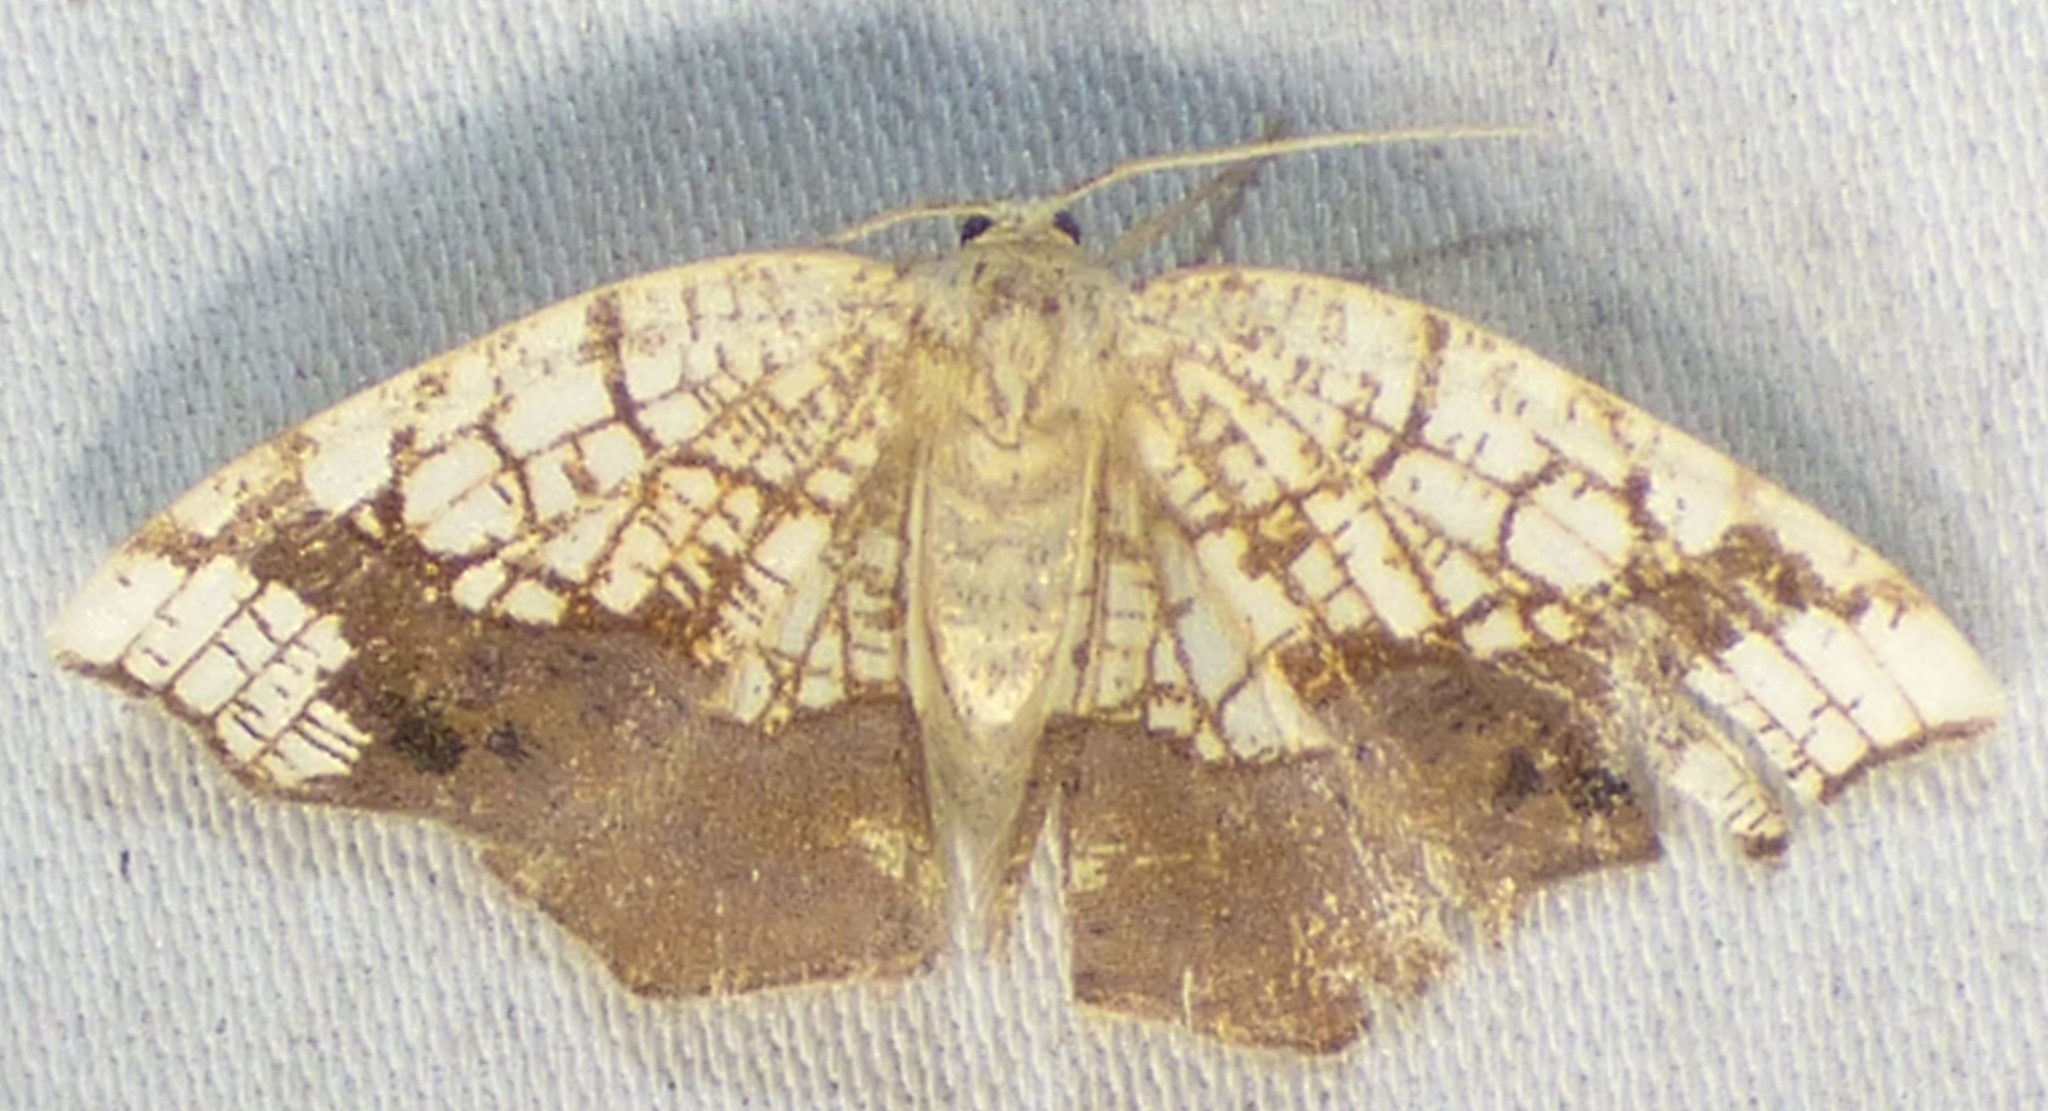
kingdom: Animalia
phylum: Arthropoda
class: Insecta
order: Lepidoptera
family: Geometridae
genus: Nematocampa
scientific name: Nematocampa resistaria
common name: Horned spanworm moth
